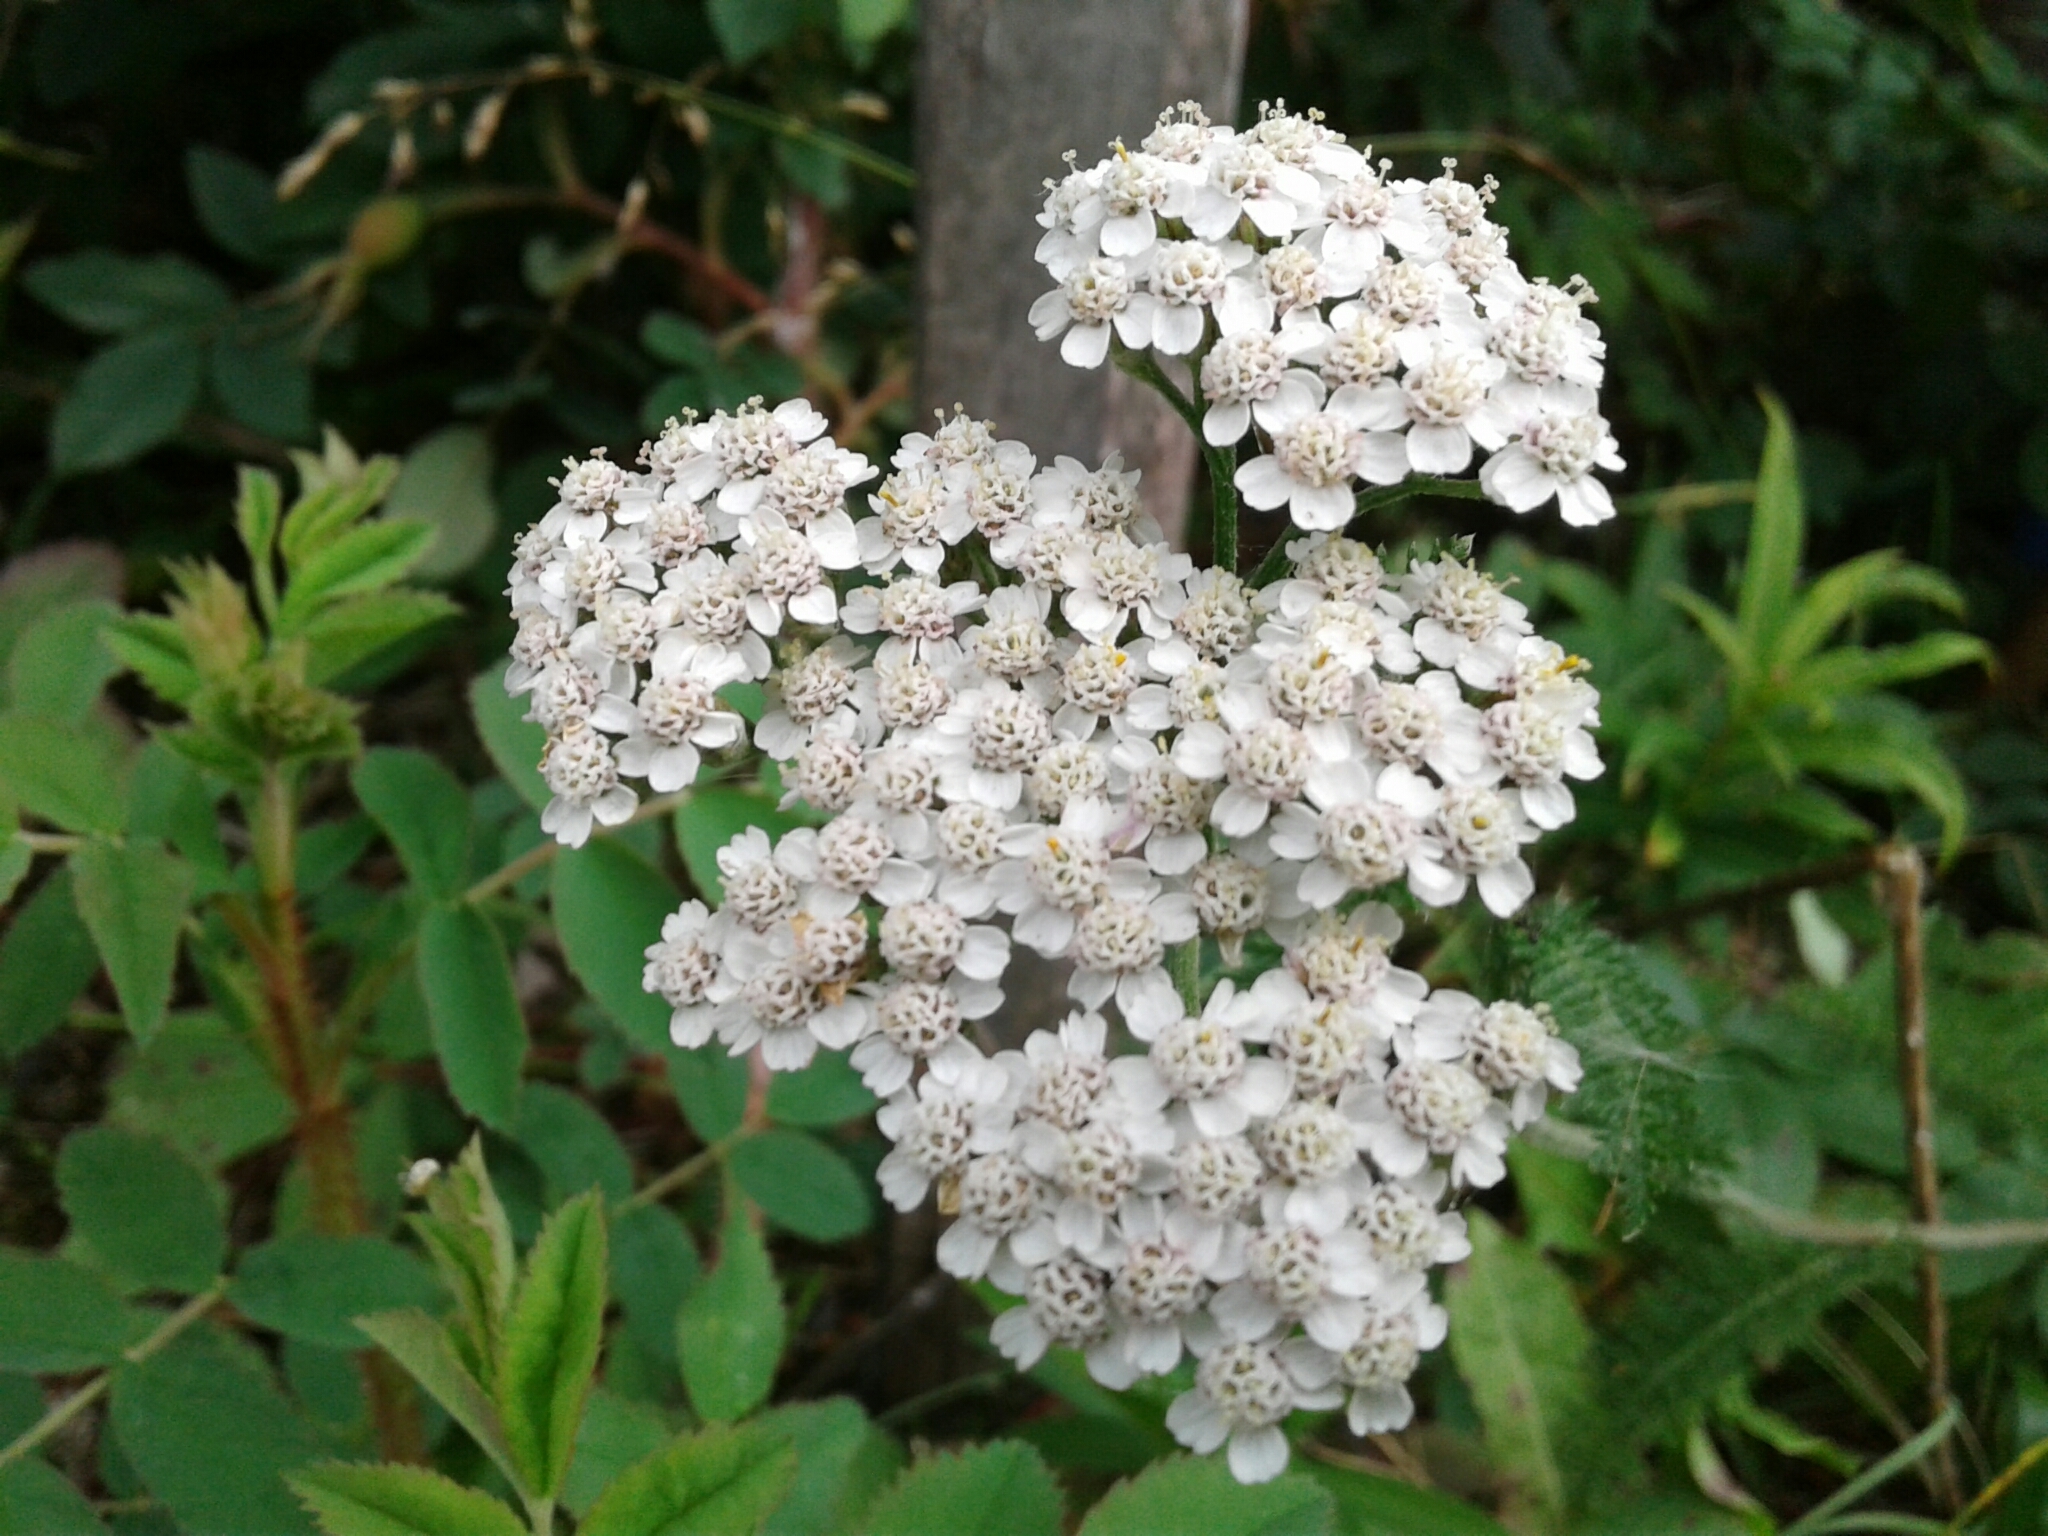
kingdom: Plantae
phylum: Tracheophyta
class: Magnoliopsida
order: Asterales
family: Asteraceae
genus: Achillea
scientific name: Achillea millefolium
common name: Yarrow
